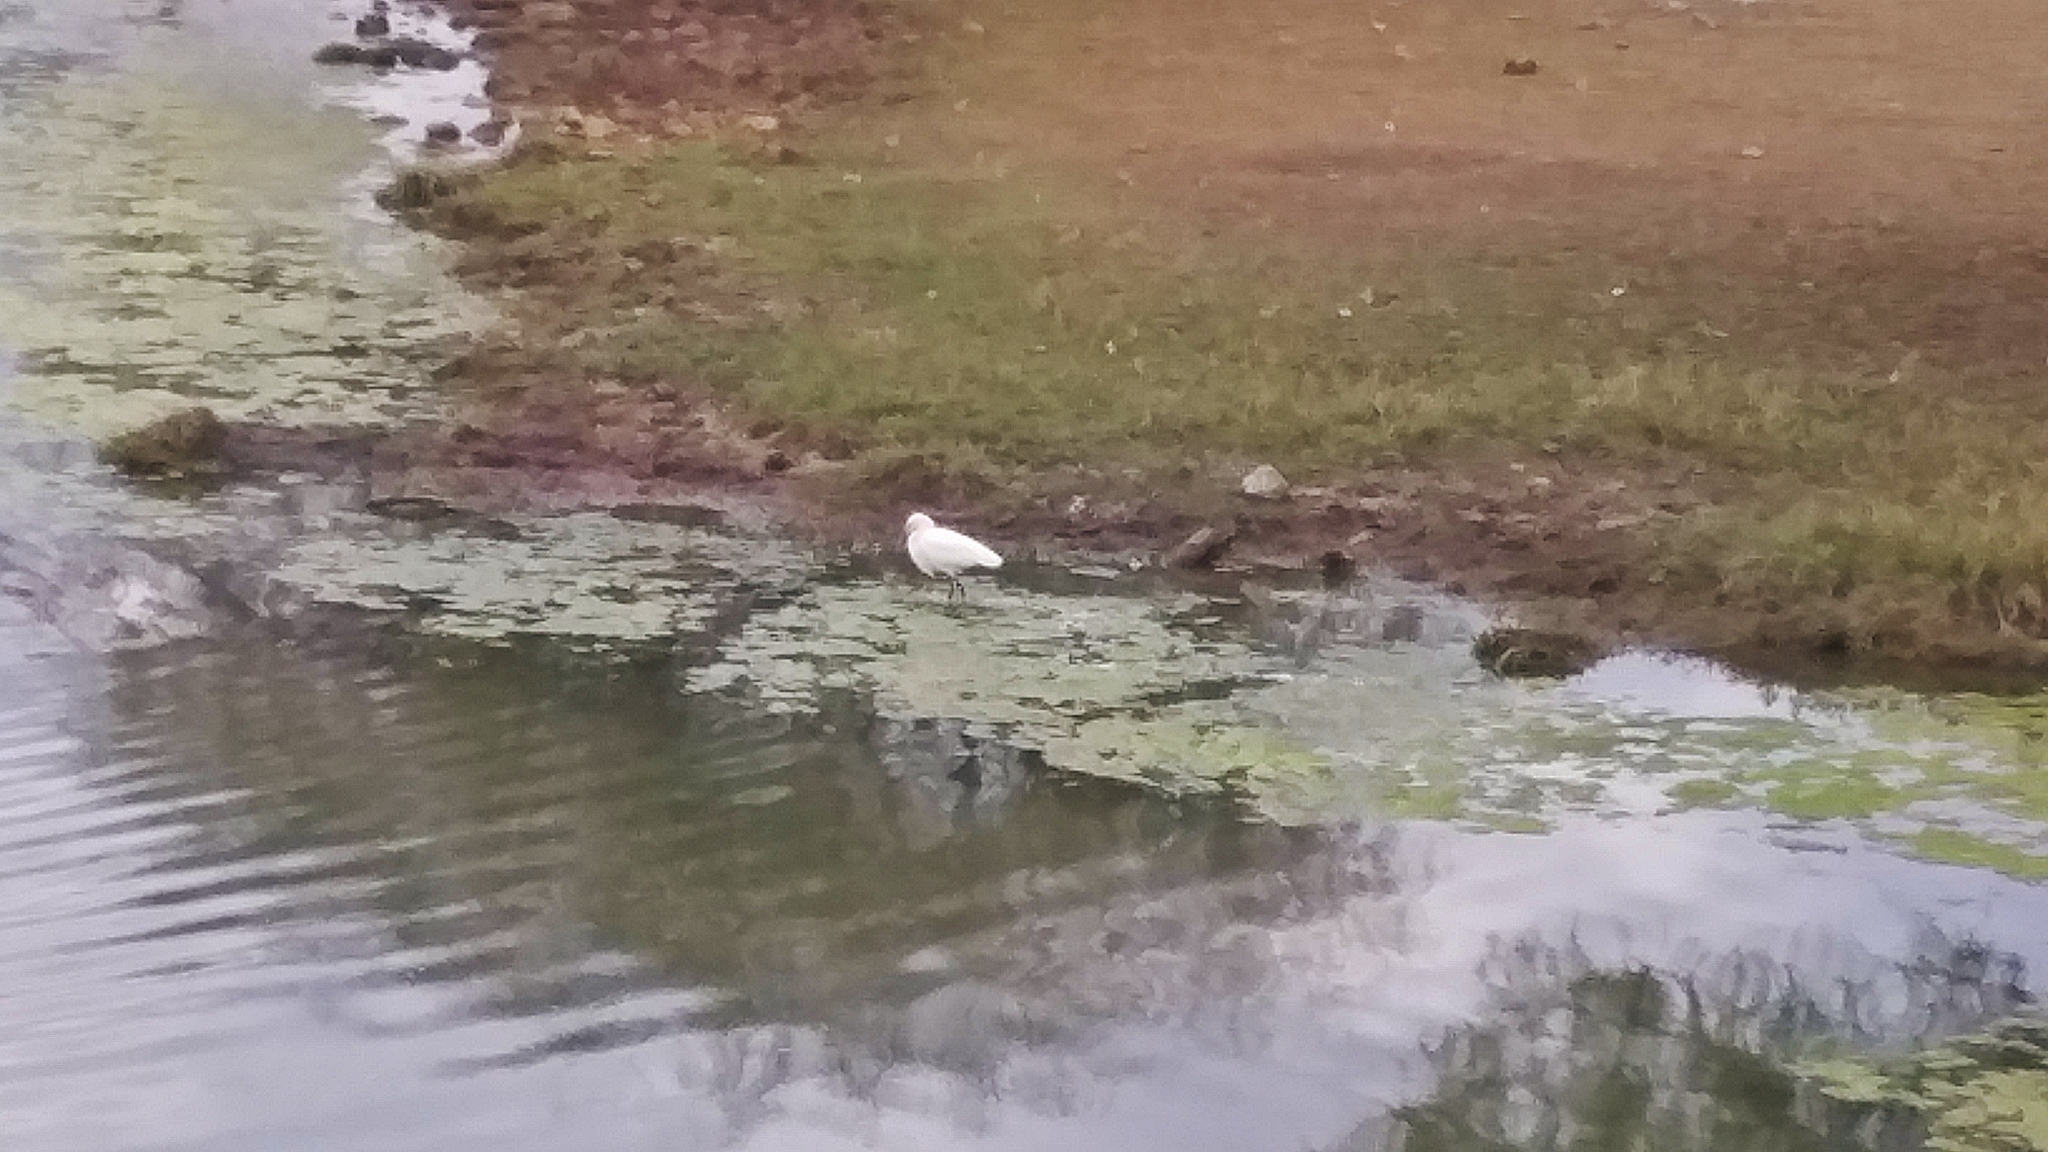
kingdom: Animalia
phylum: Chordata
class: Aves
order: Pelecaniformes
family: Ardeidae
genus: Egretta
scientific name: Egretta thula
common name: Snowy egret
